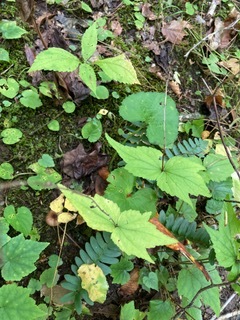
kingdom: Plantae
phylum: Tracheophyta
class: Magnoliopsida
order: Saxifragales
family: Saxifragaceae
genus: Mitella
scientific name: Mitella diphylla
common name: Coolwort
